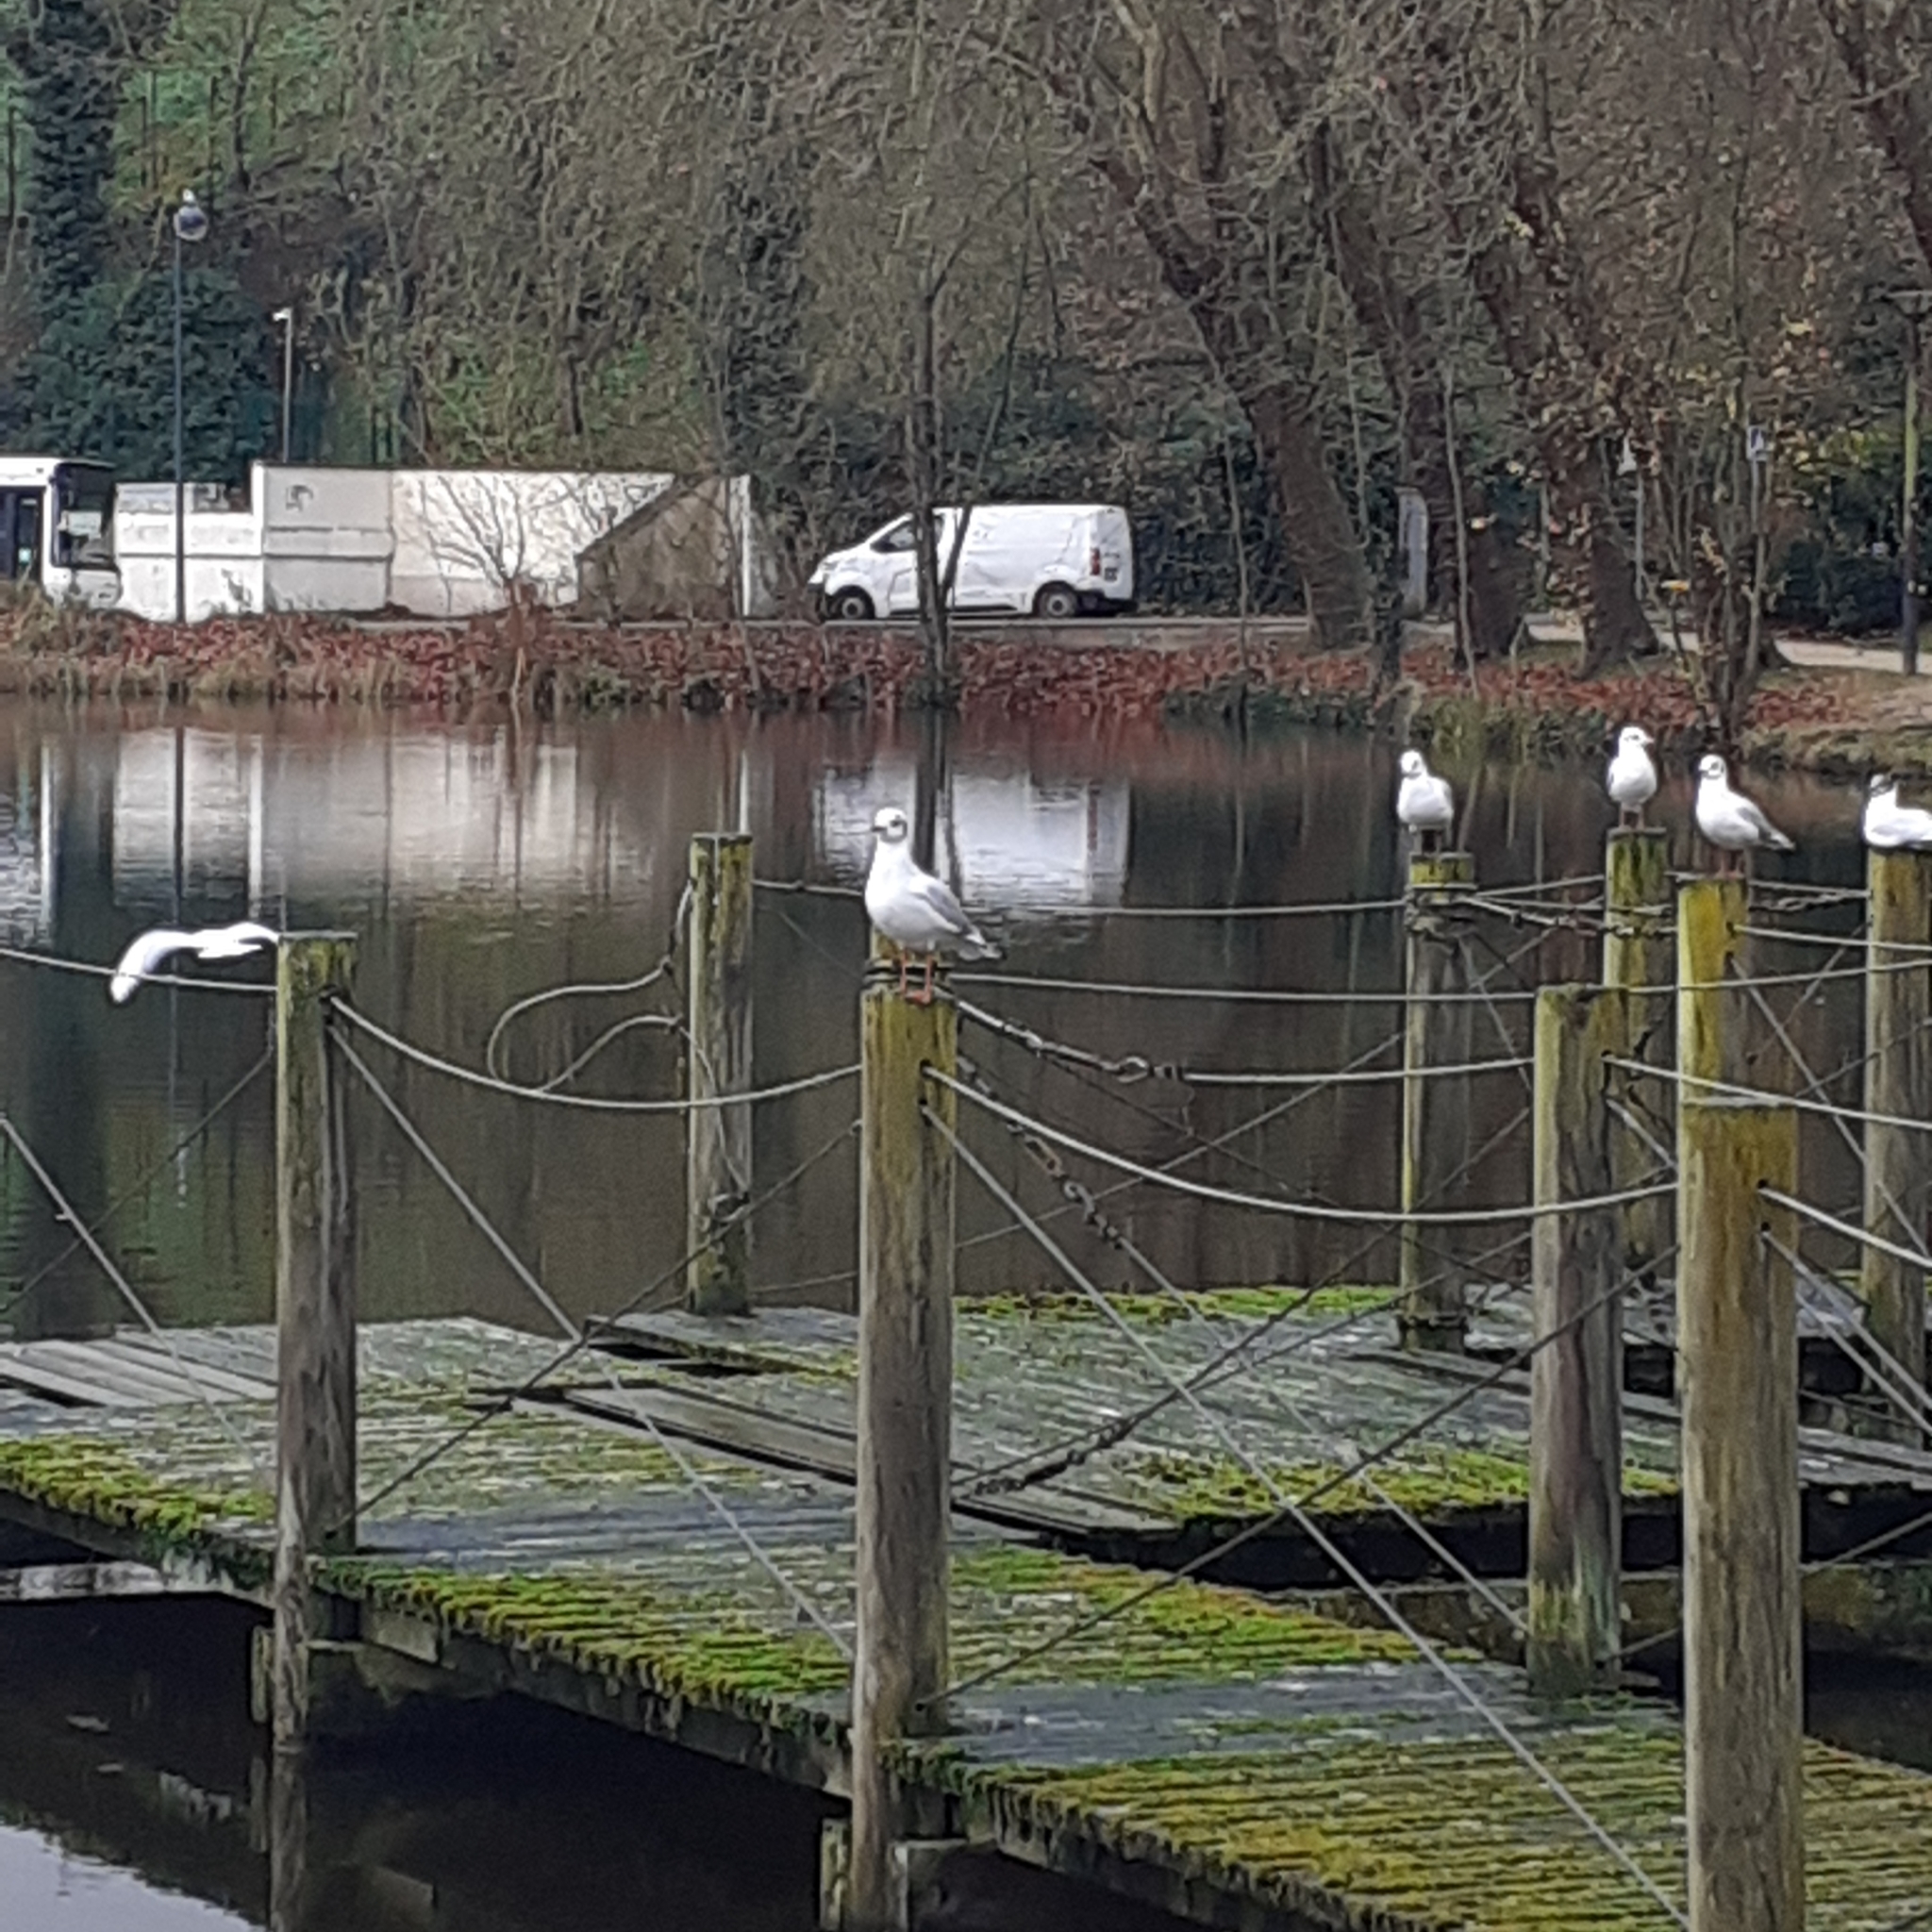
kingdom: Animalia
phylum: Chordata
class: Aves
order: Charadriiformes
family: Laridae
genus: Chroicocephalus
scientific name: Chroicocephalus ridibundus
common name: Black-headed gull
